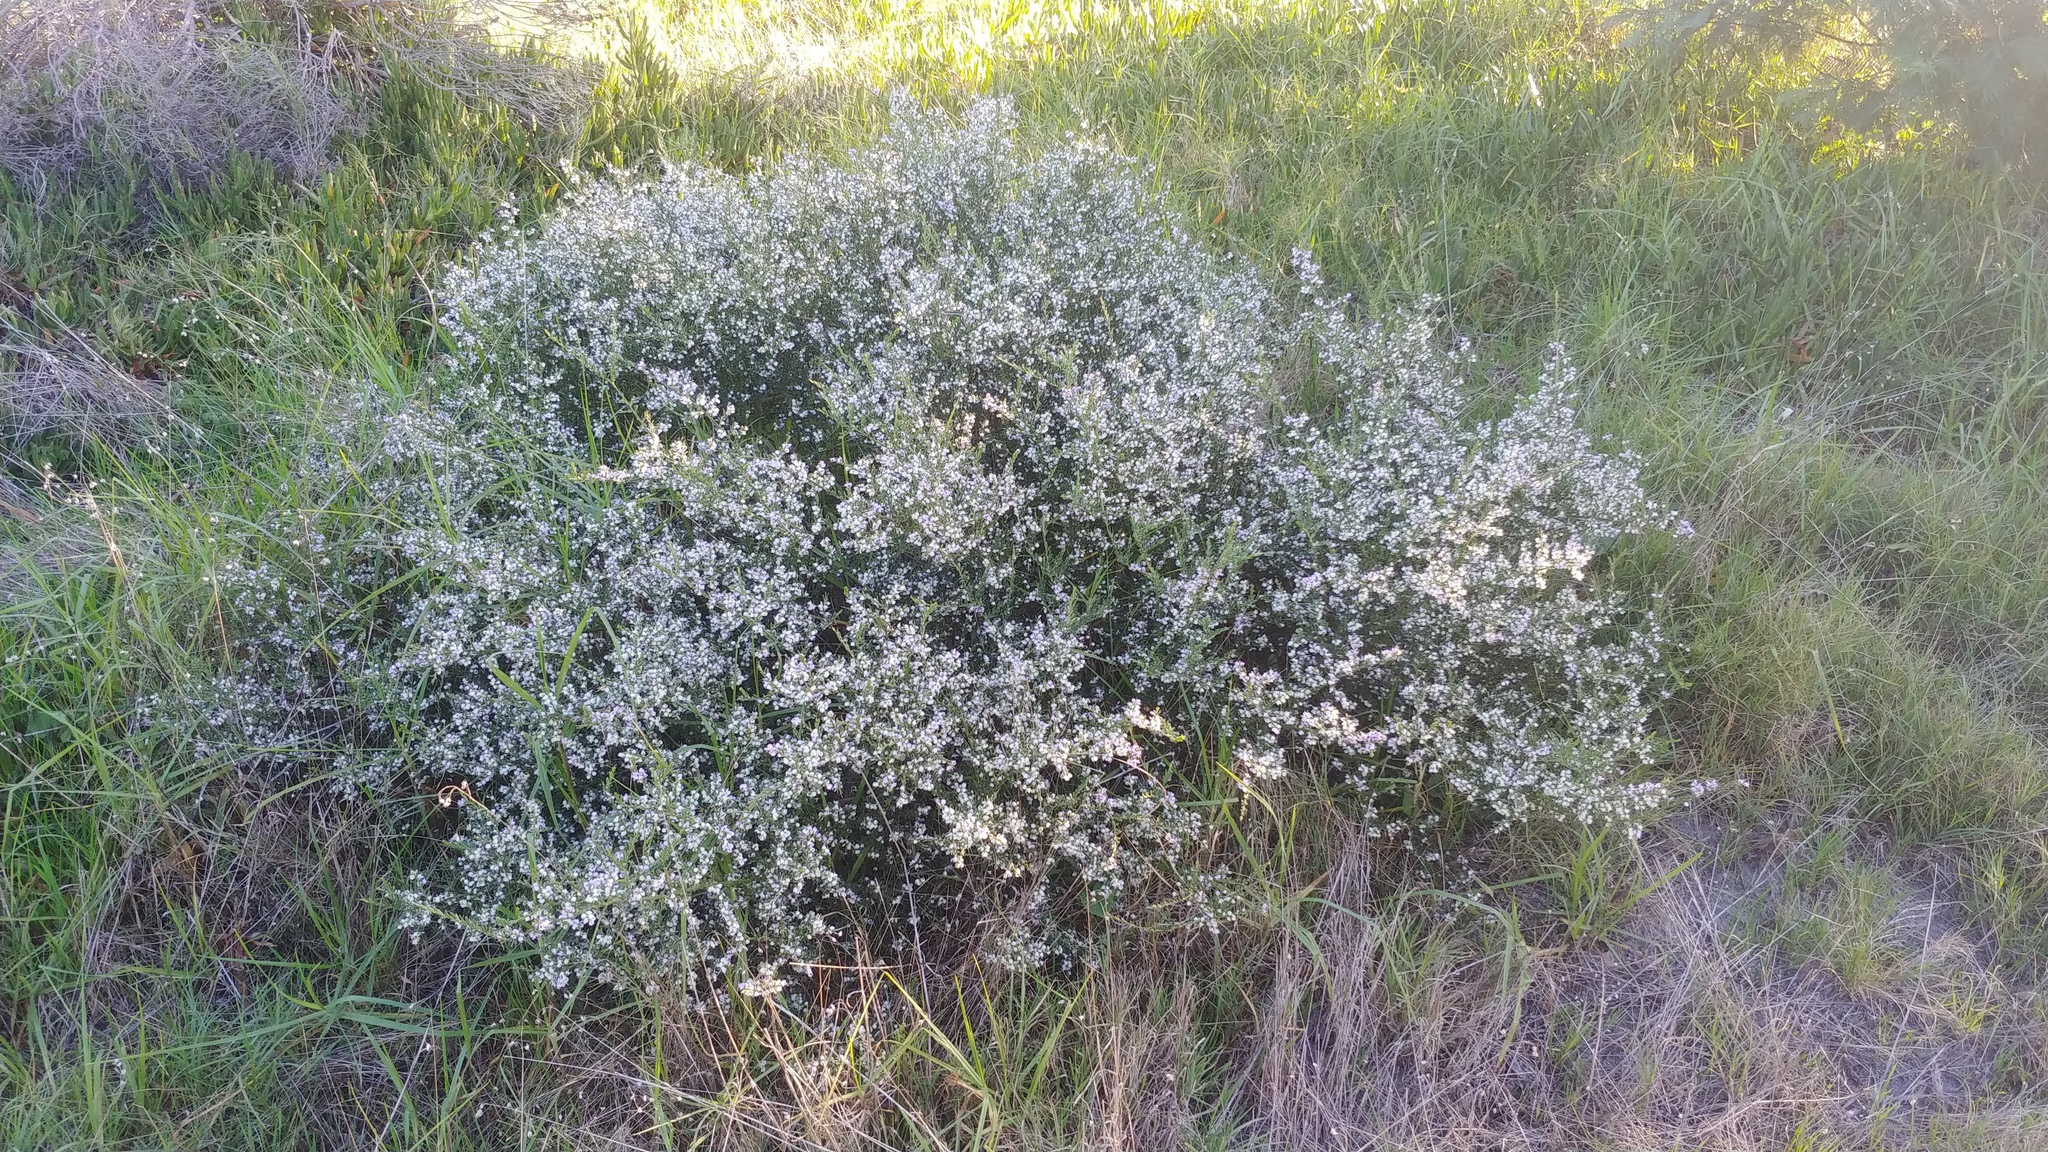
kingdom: Plantae
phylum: Tracheophyta
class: Magnoliopsida
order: Fabales
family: Polygalaceae
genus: Muraltia
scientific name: Muraltia spinosa
